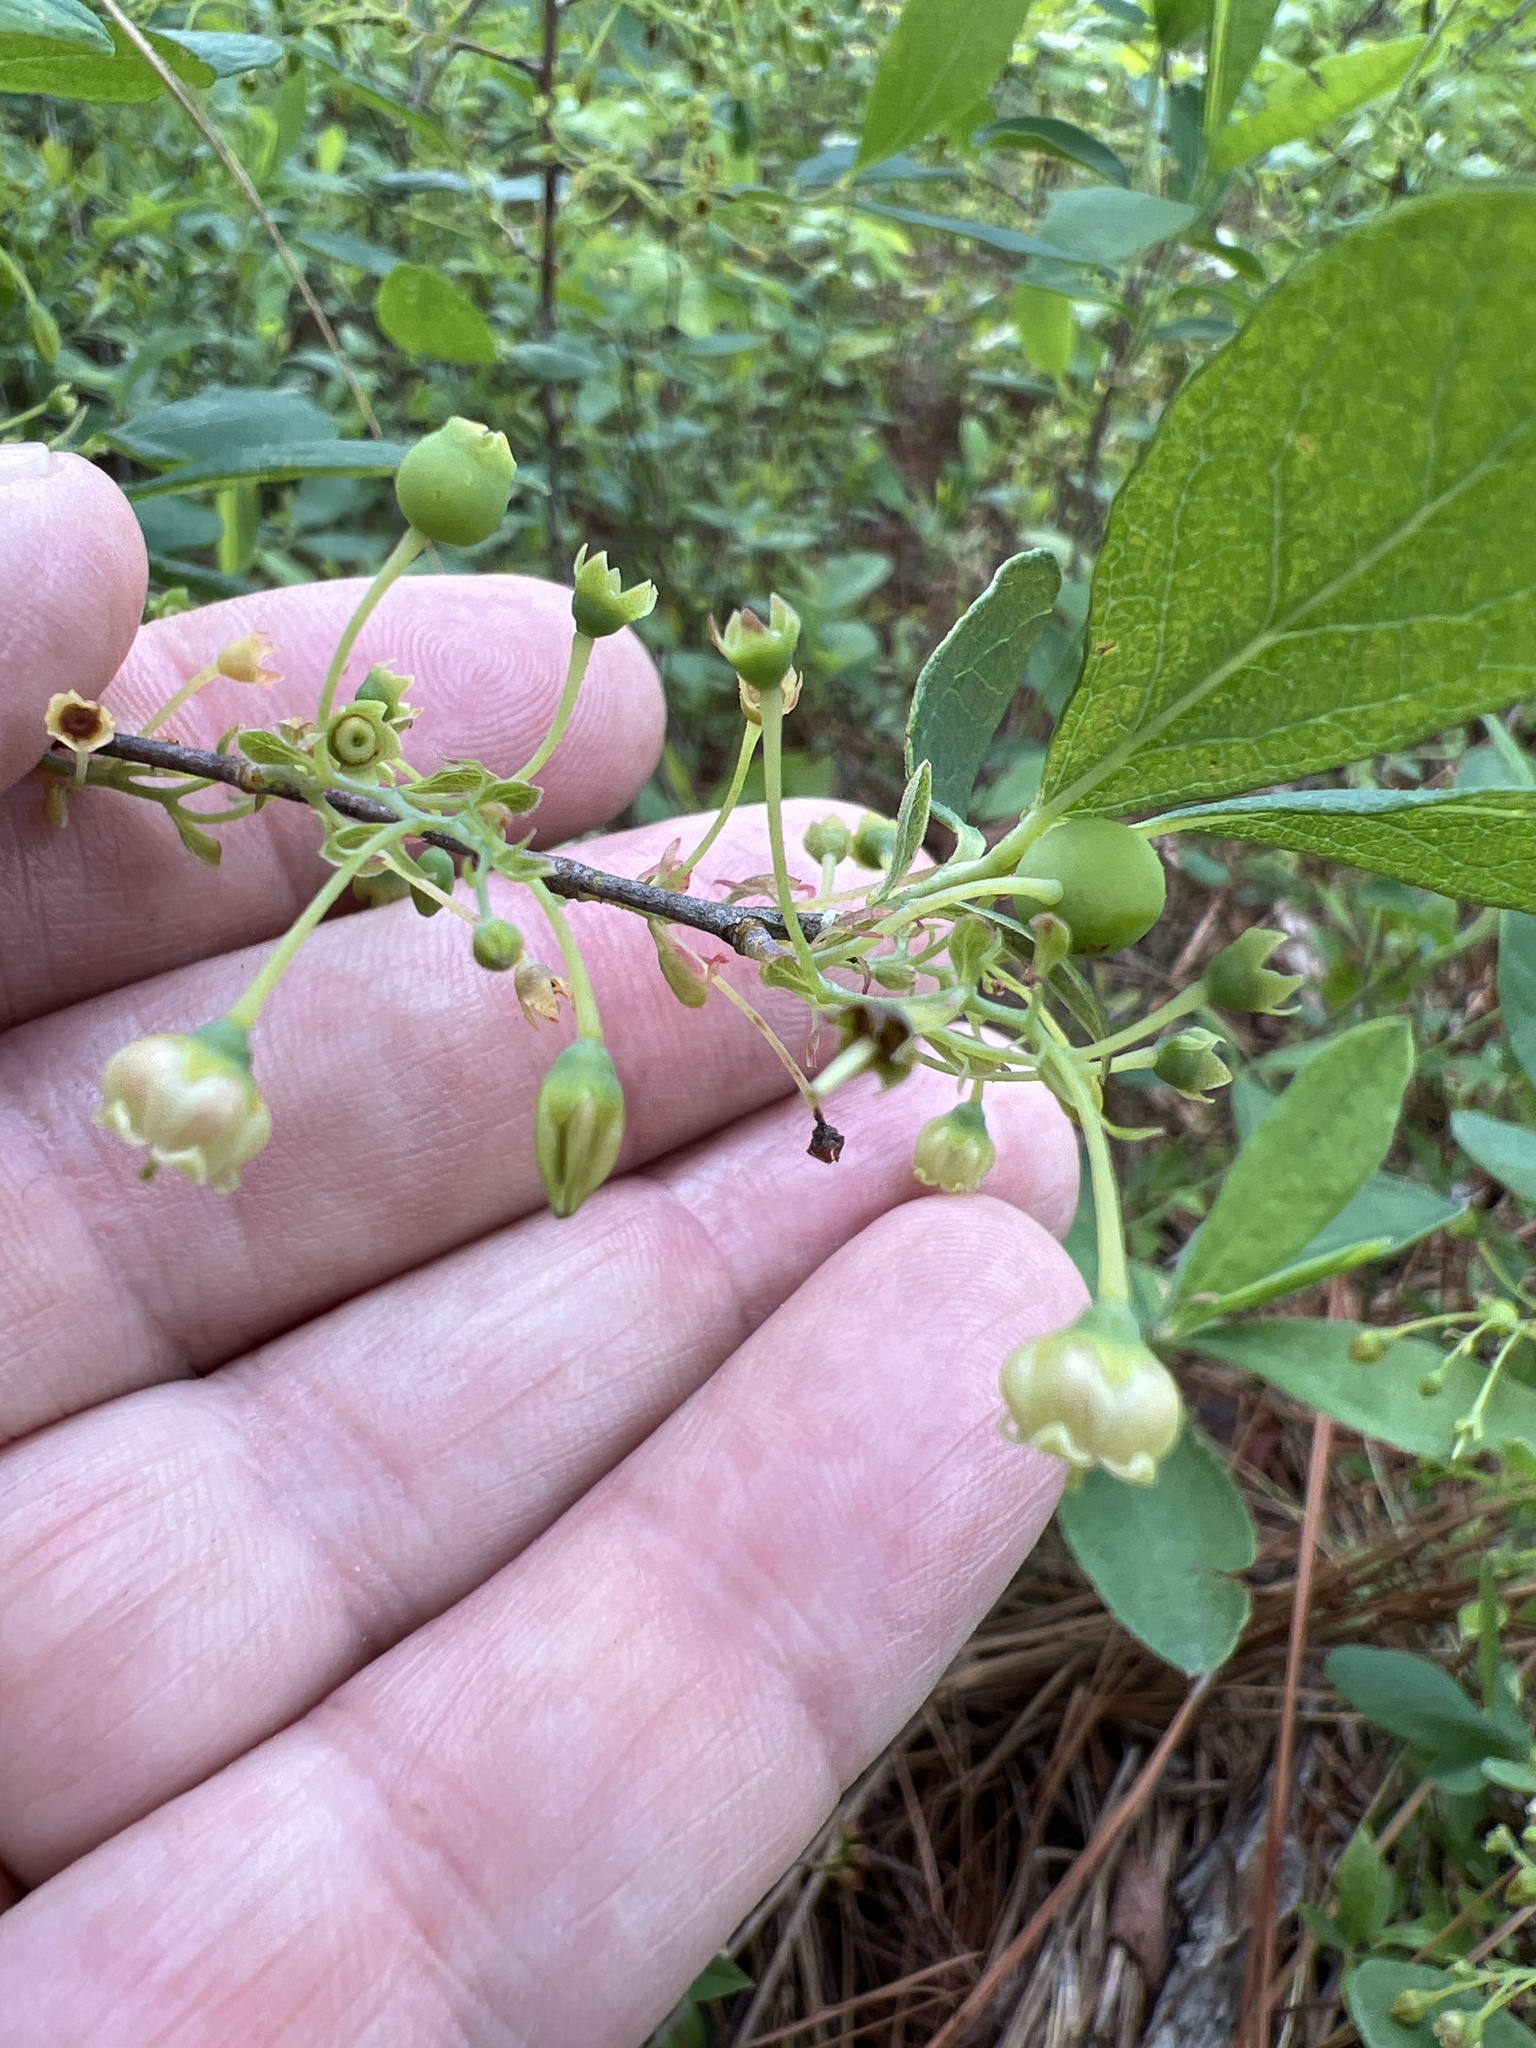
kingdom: Plantae
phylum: Tracheophyta
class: Magnoliopsida
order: Ericales
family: Ericaceae
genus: Gaylussacia
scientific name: Gaylussacia frondosa
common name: Dangleberry
